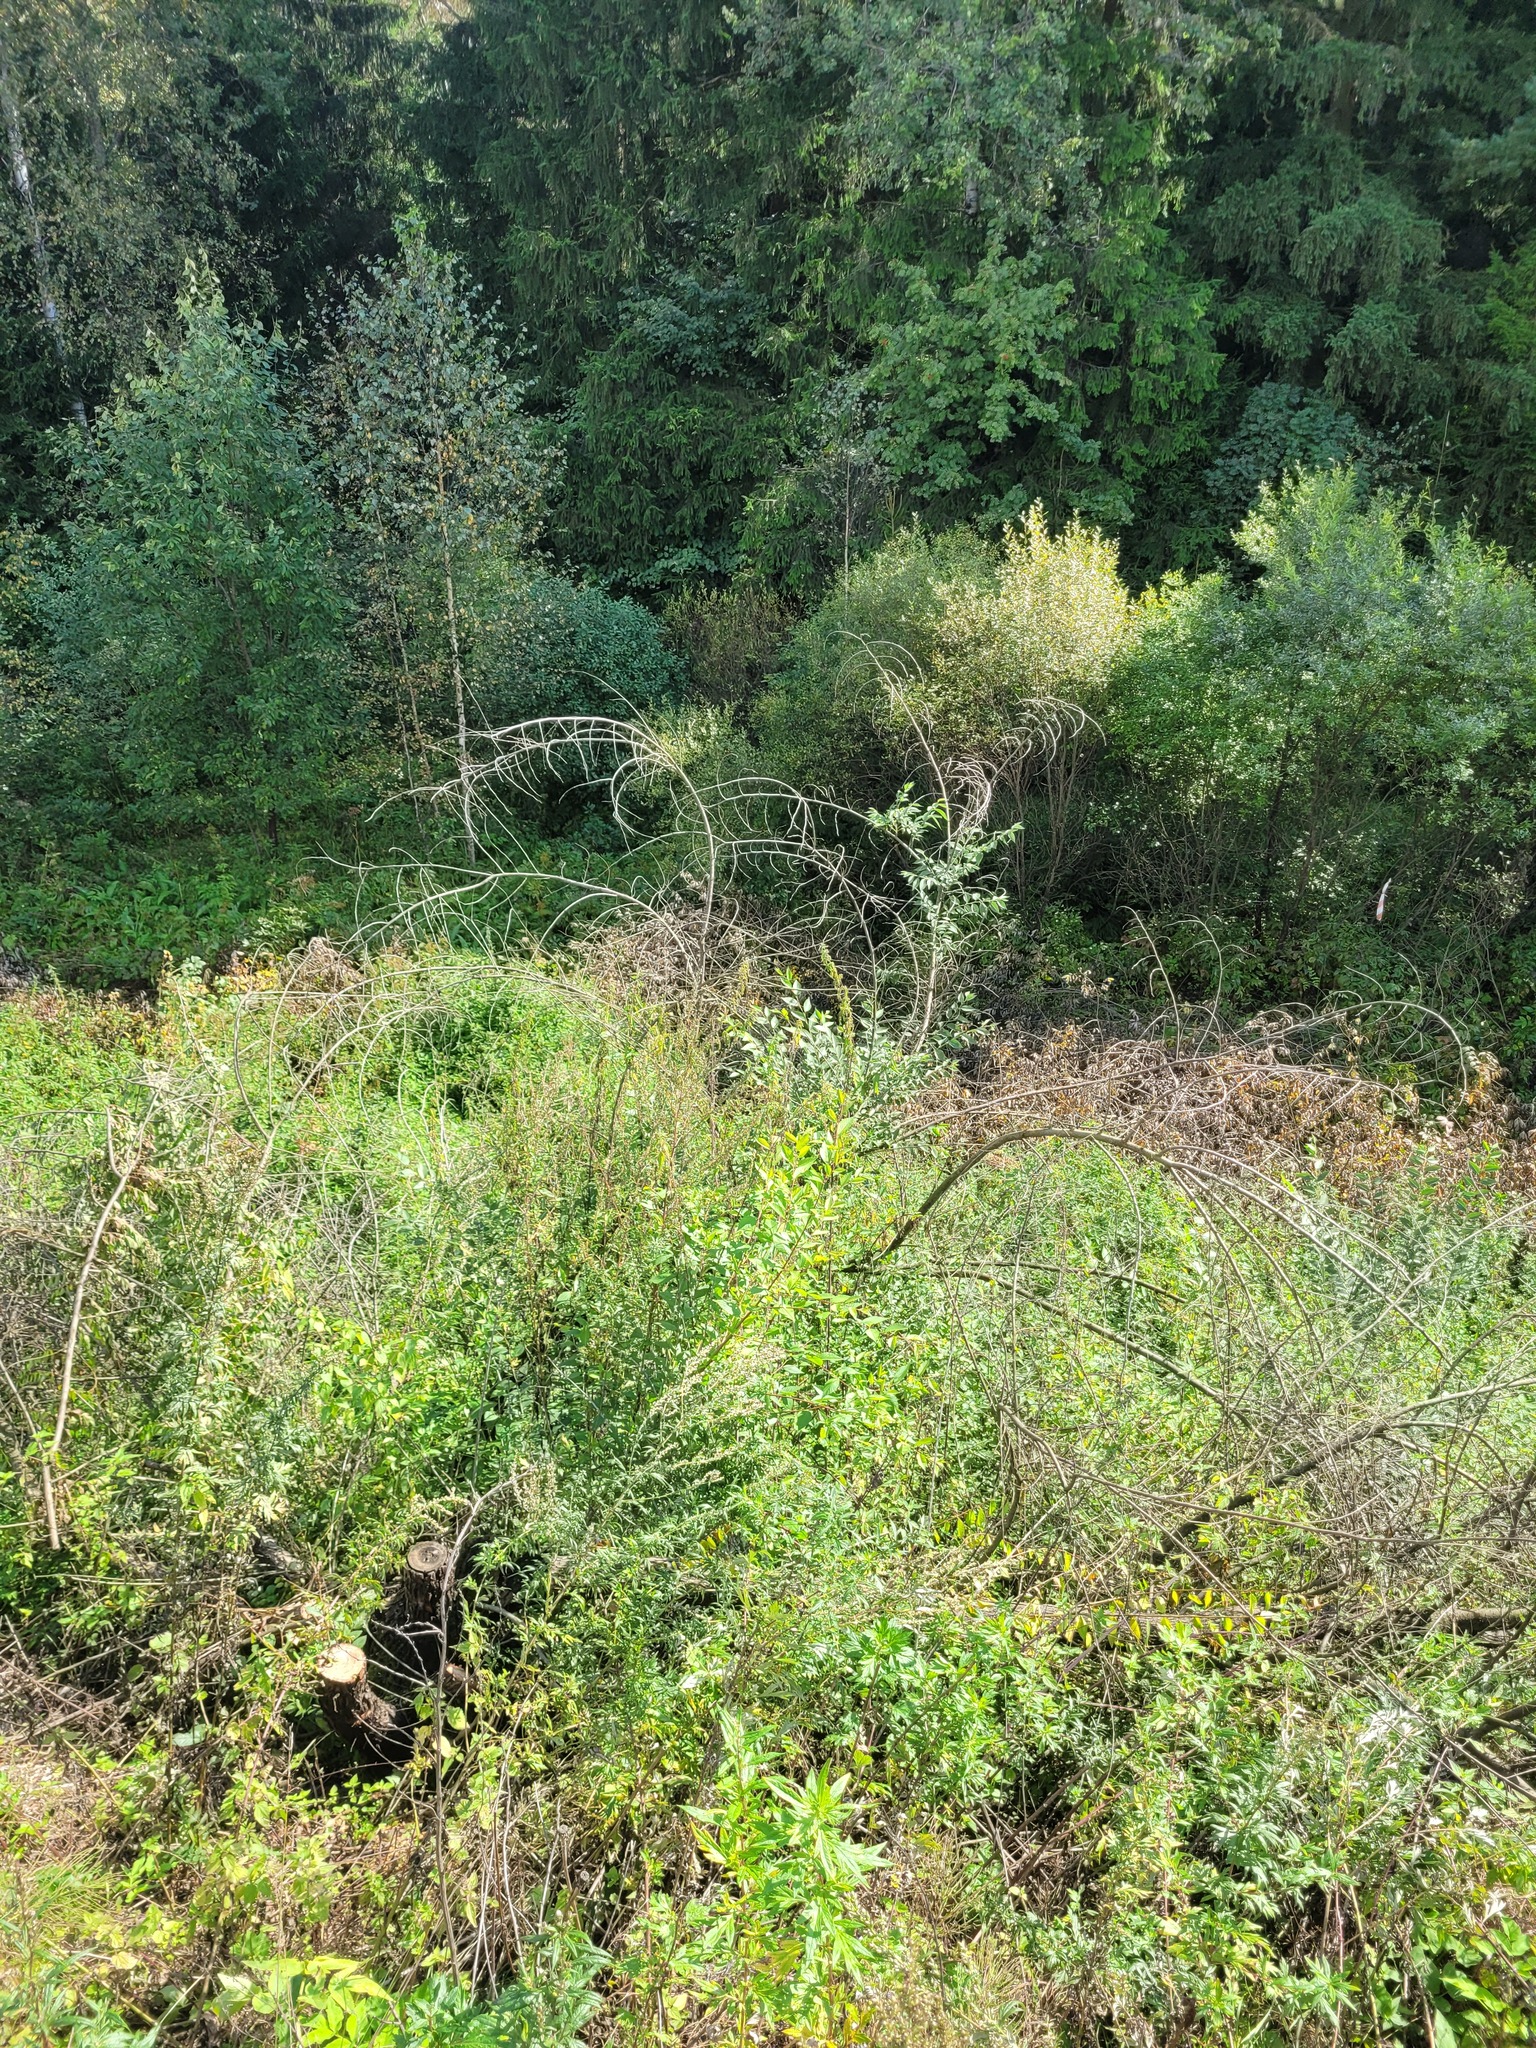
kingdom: Plantae
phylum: Tracheophyta
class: Magnoliopsida
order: Rosales
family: Ulmaceae
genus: Ulmus
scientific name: Ulmus pumila
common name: Siberian elm
